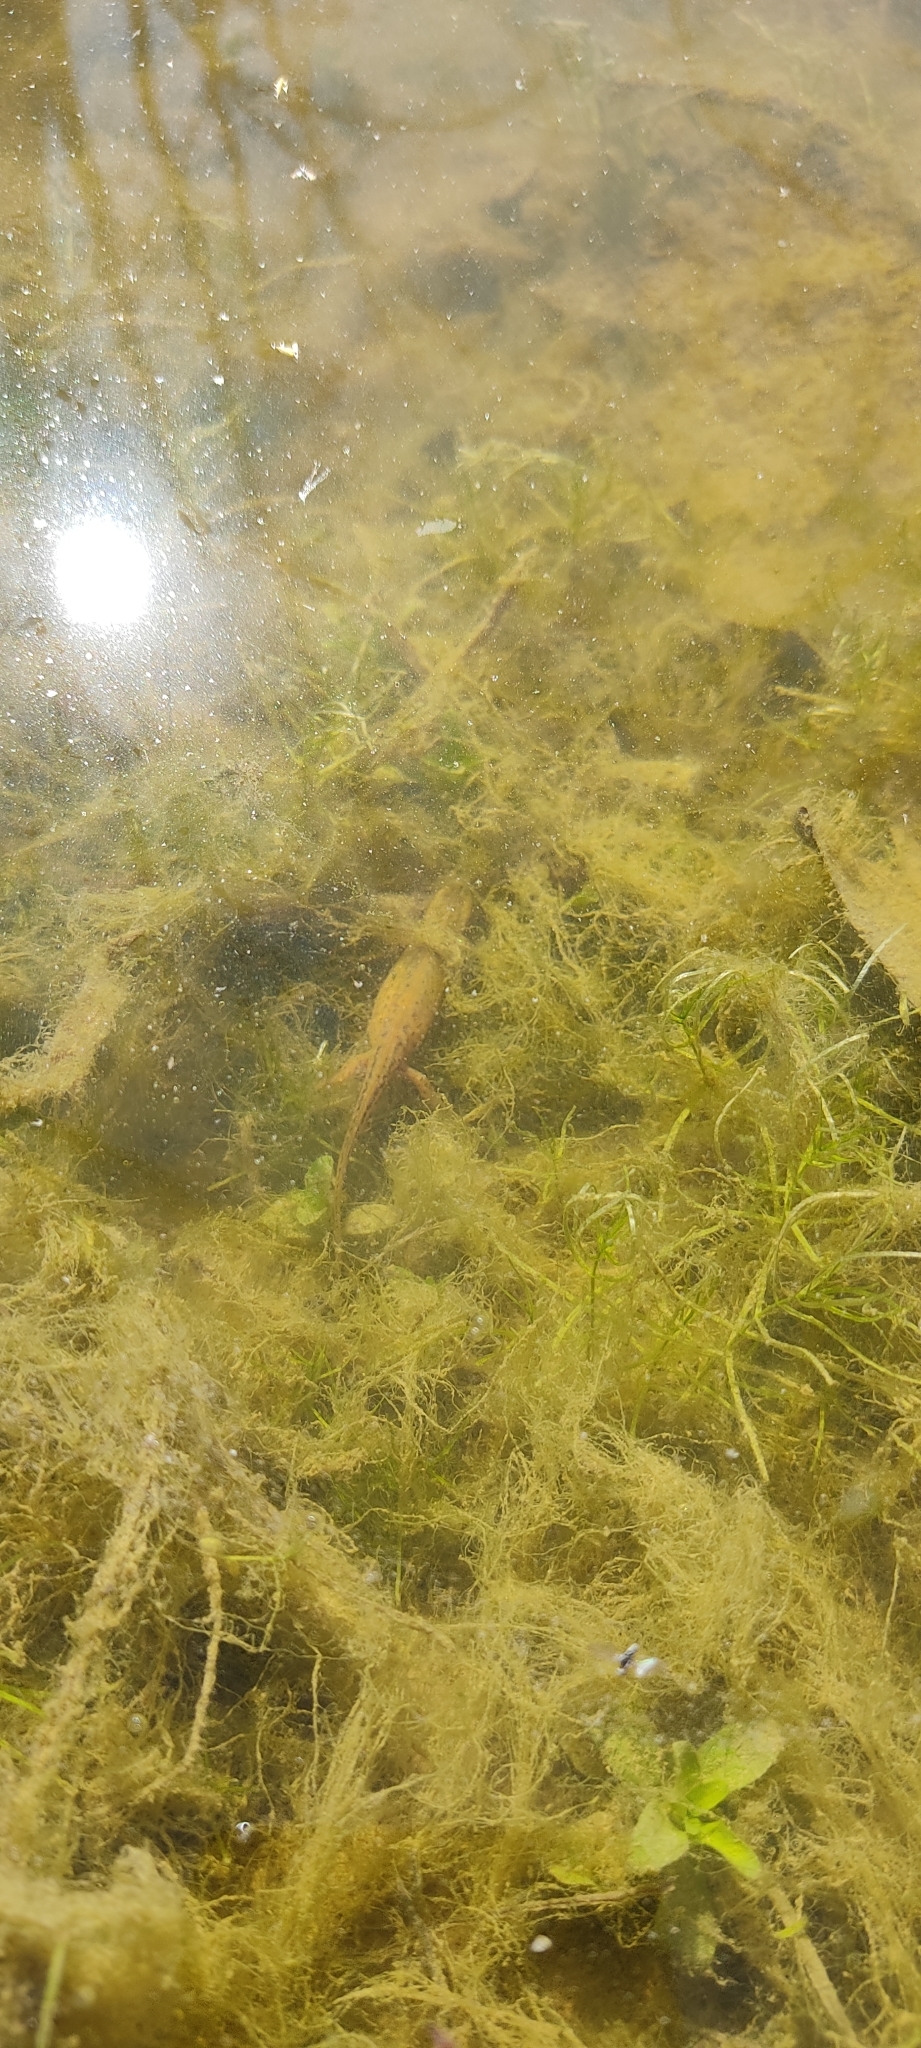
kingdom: Animalia
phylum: Chordata
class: Amphibia
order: Caudata
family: Salamandridae
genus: Lissotriton
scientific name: Lissotriton helveticus
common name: Palmate newt
